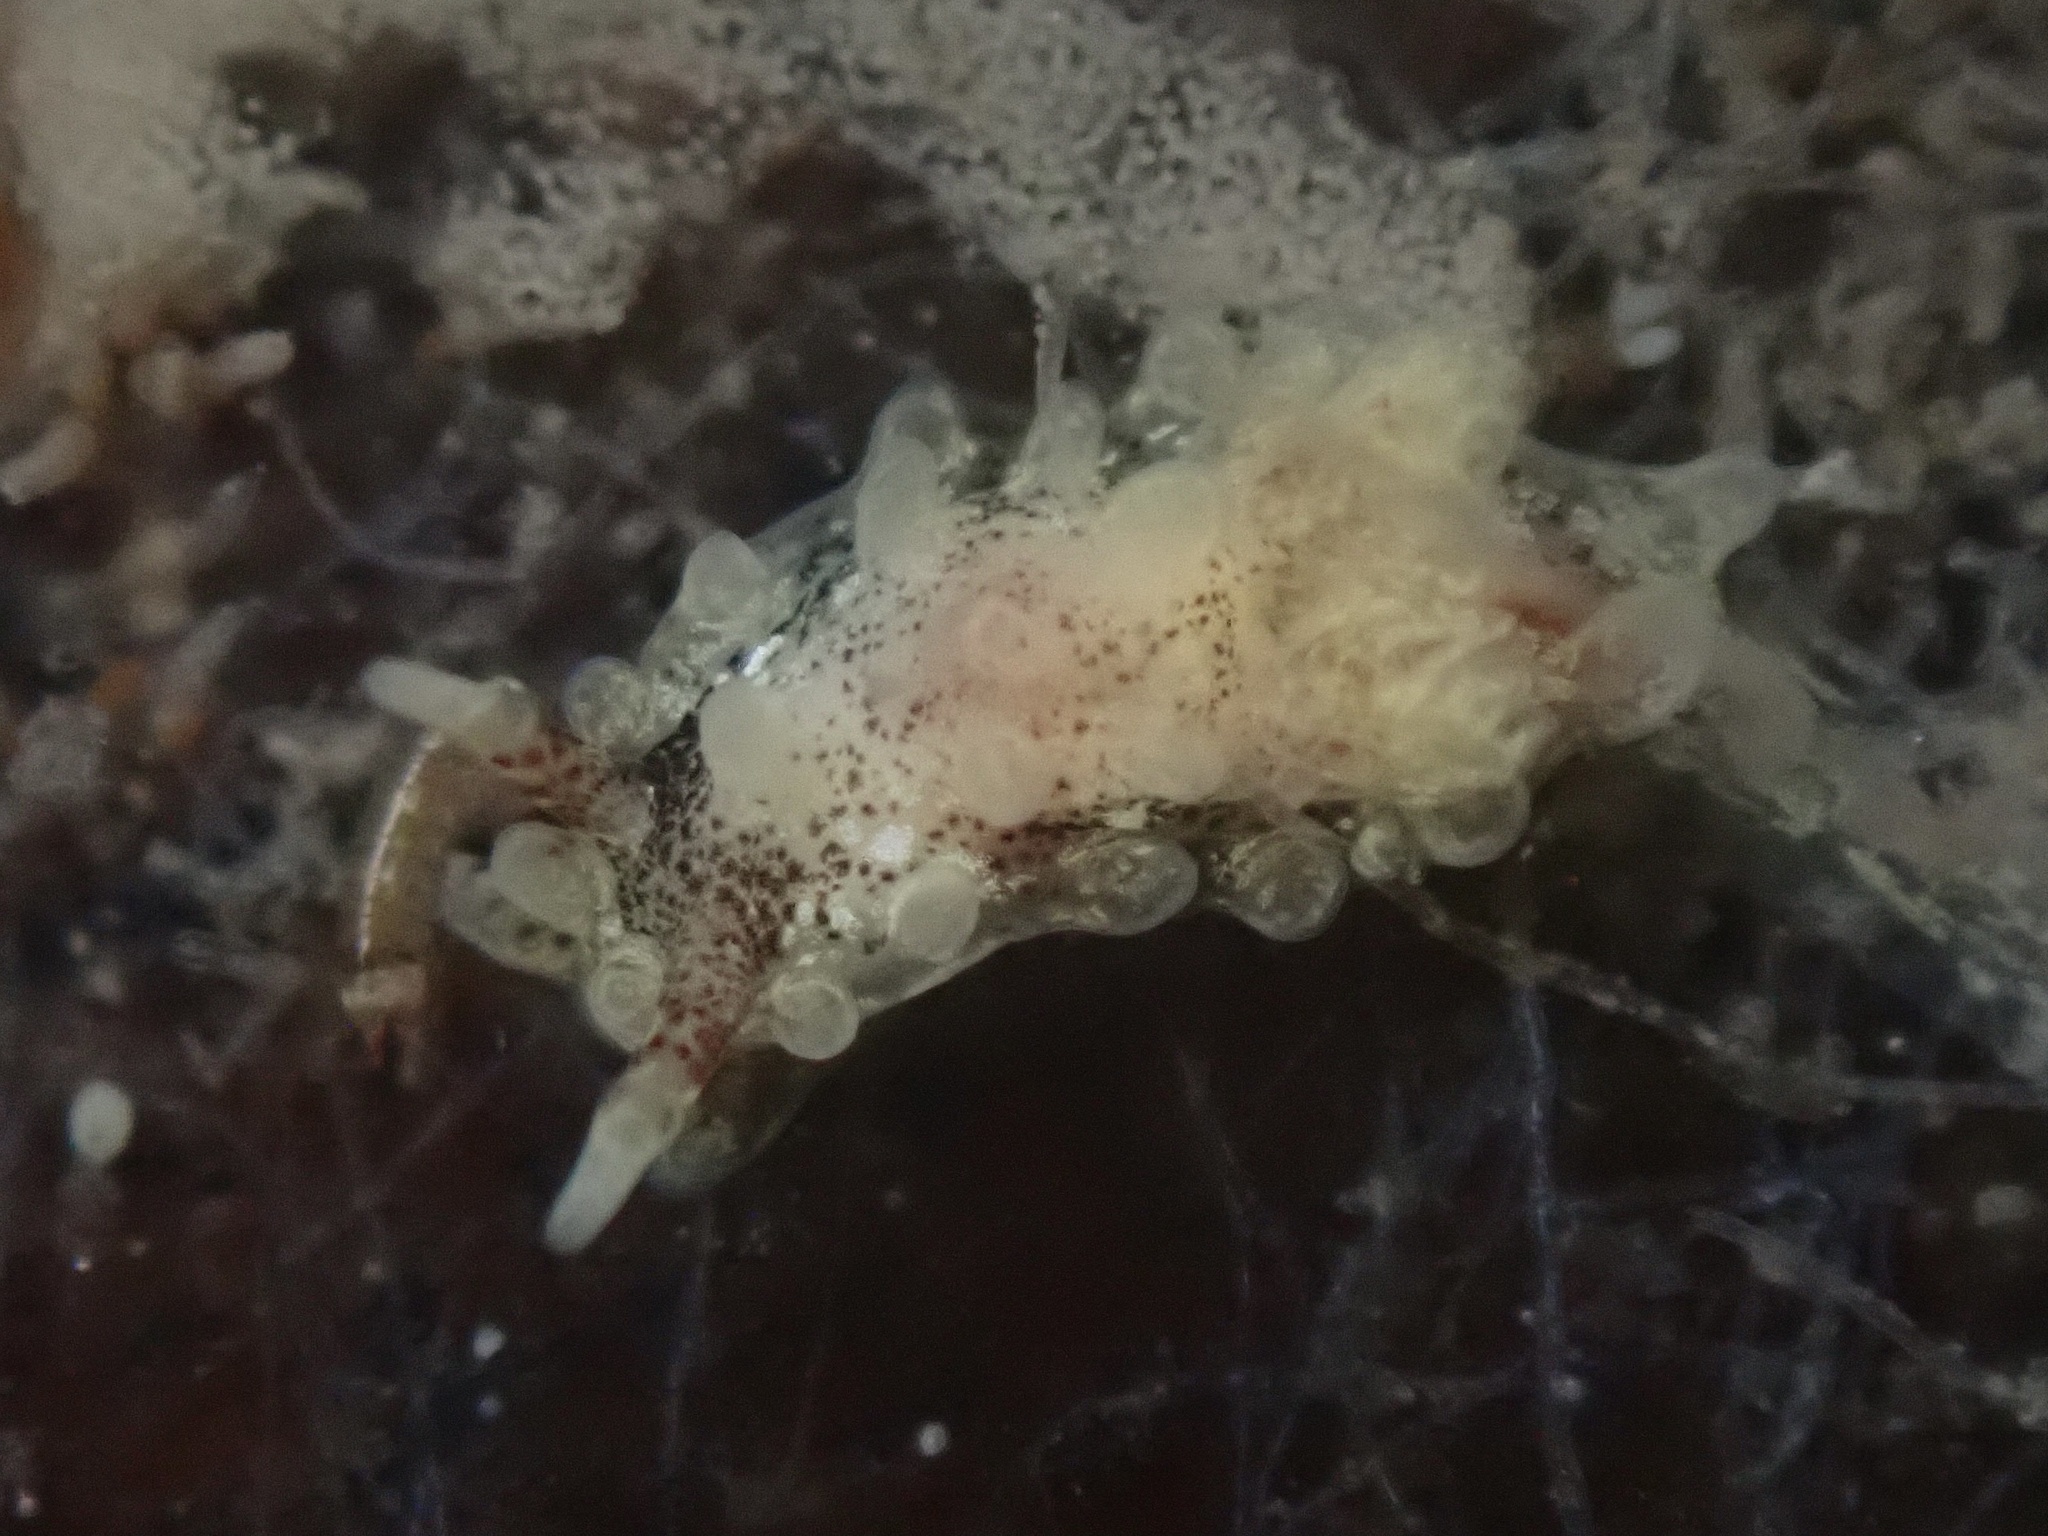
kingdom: Animalia
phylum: Mollusca
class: Gastropoda
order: Nudibranchia
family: Goniodorididae
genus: Okenia
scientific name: Okenia
